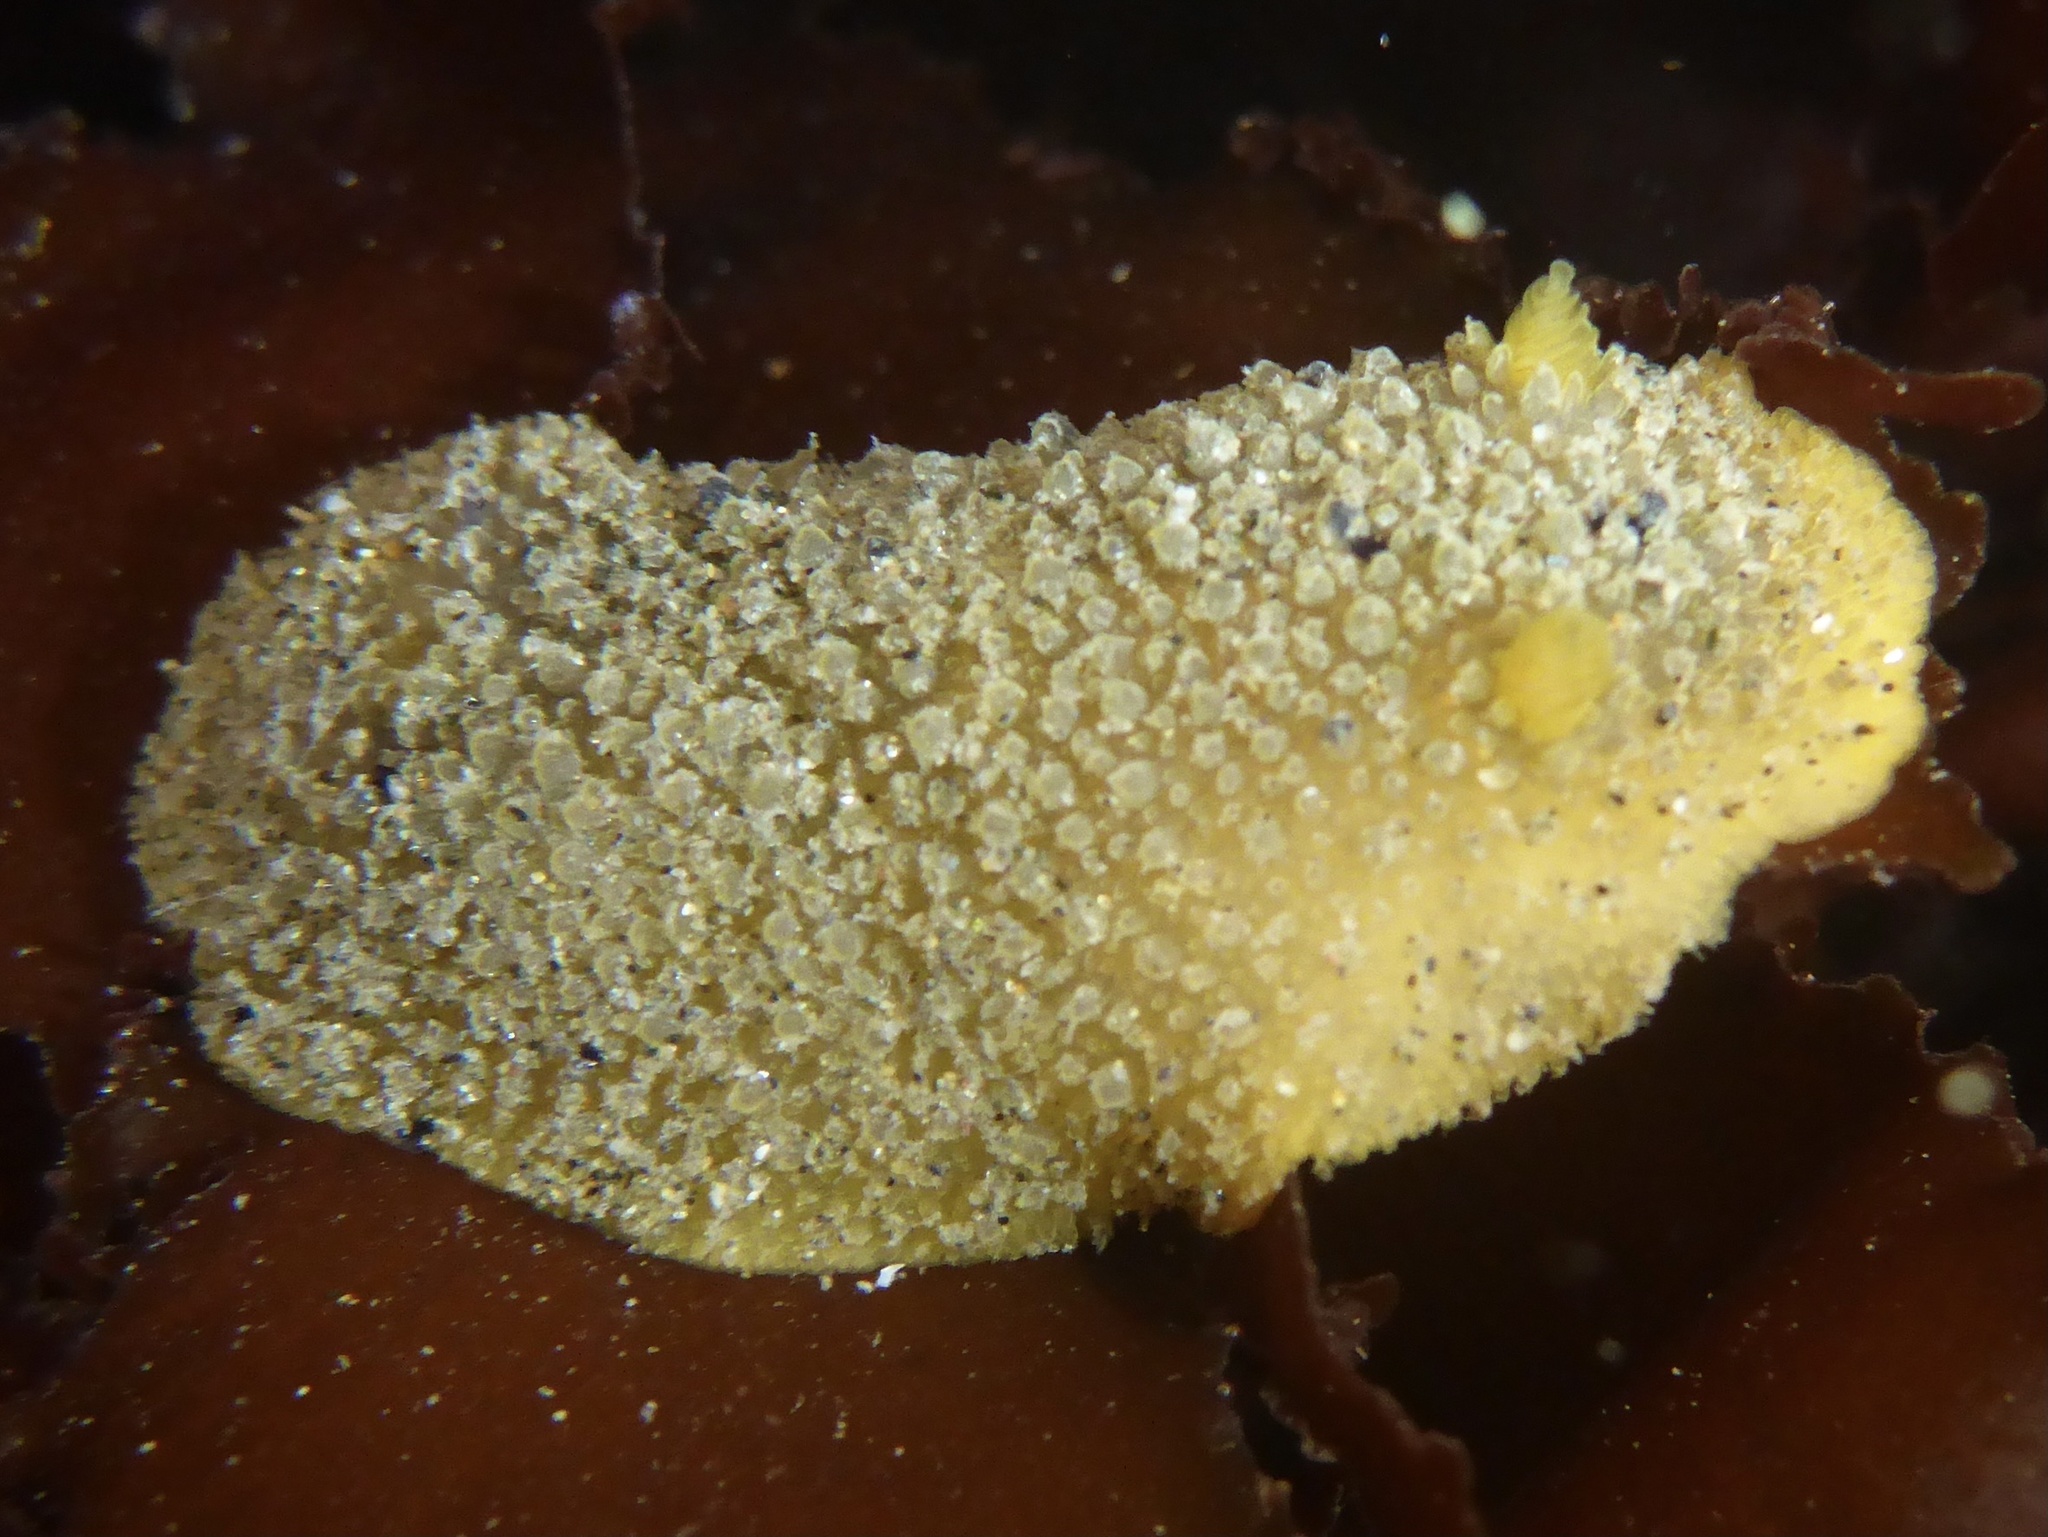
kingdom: Animalia
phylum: Mollusca
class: Gastropoda
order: Nudibranchia
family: Dorididae
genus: Doris
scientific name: Doris montereyensis
